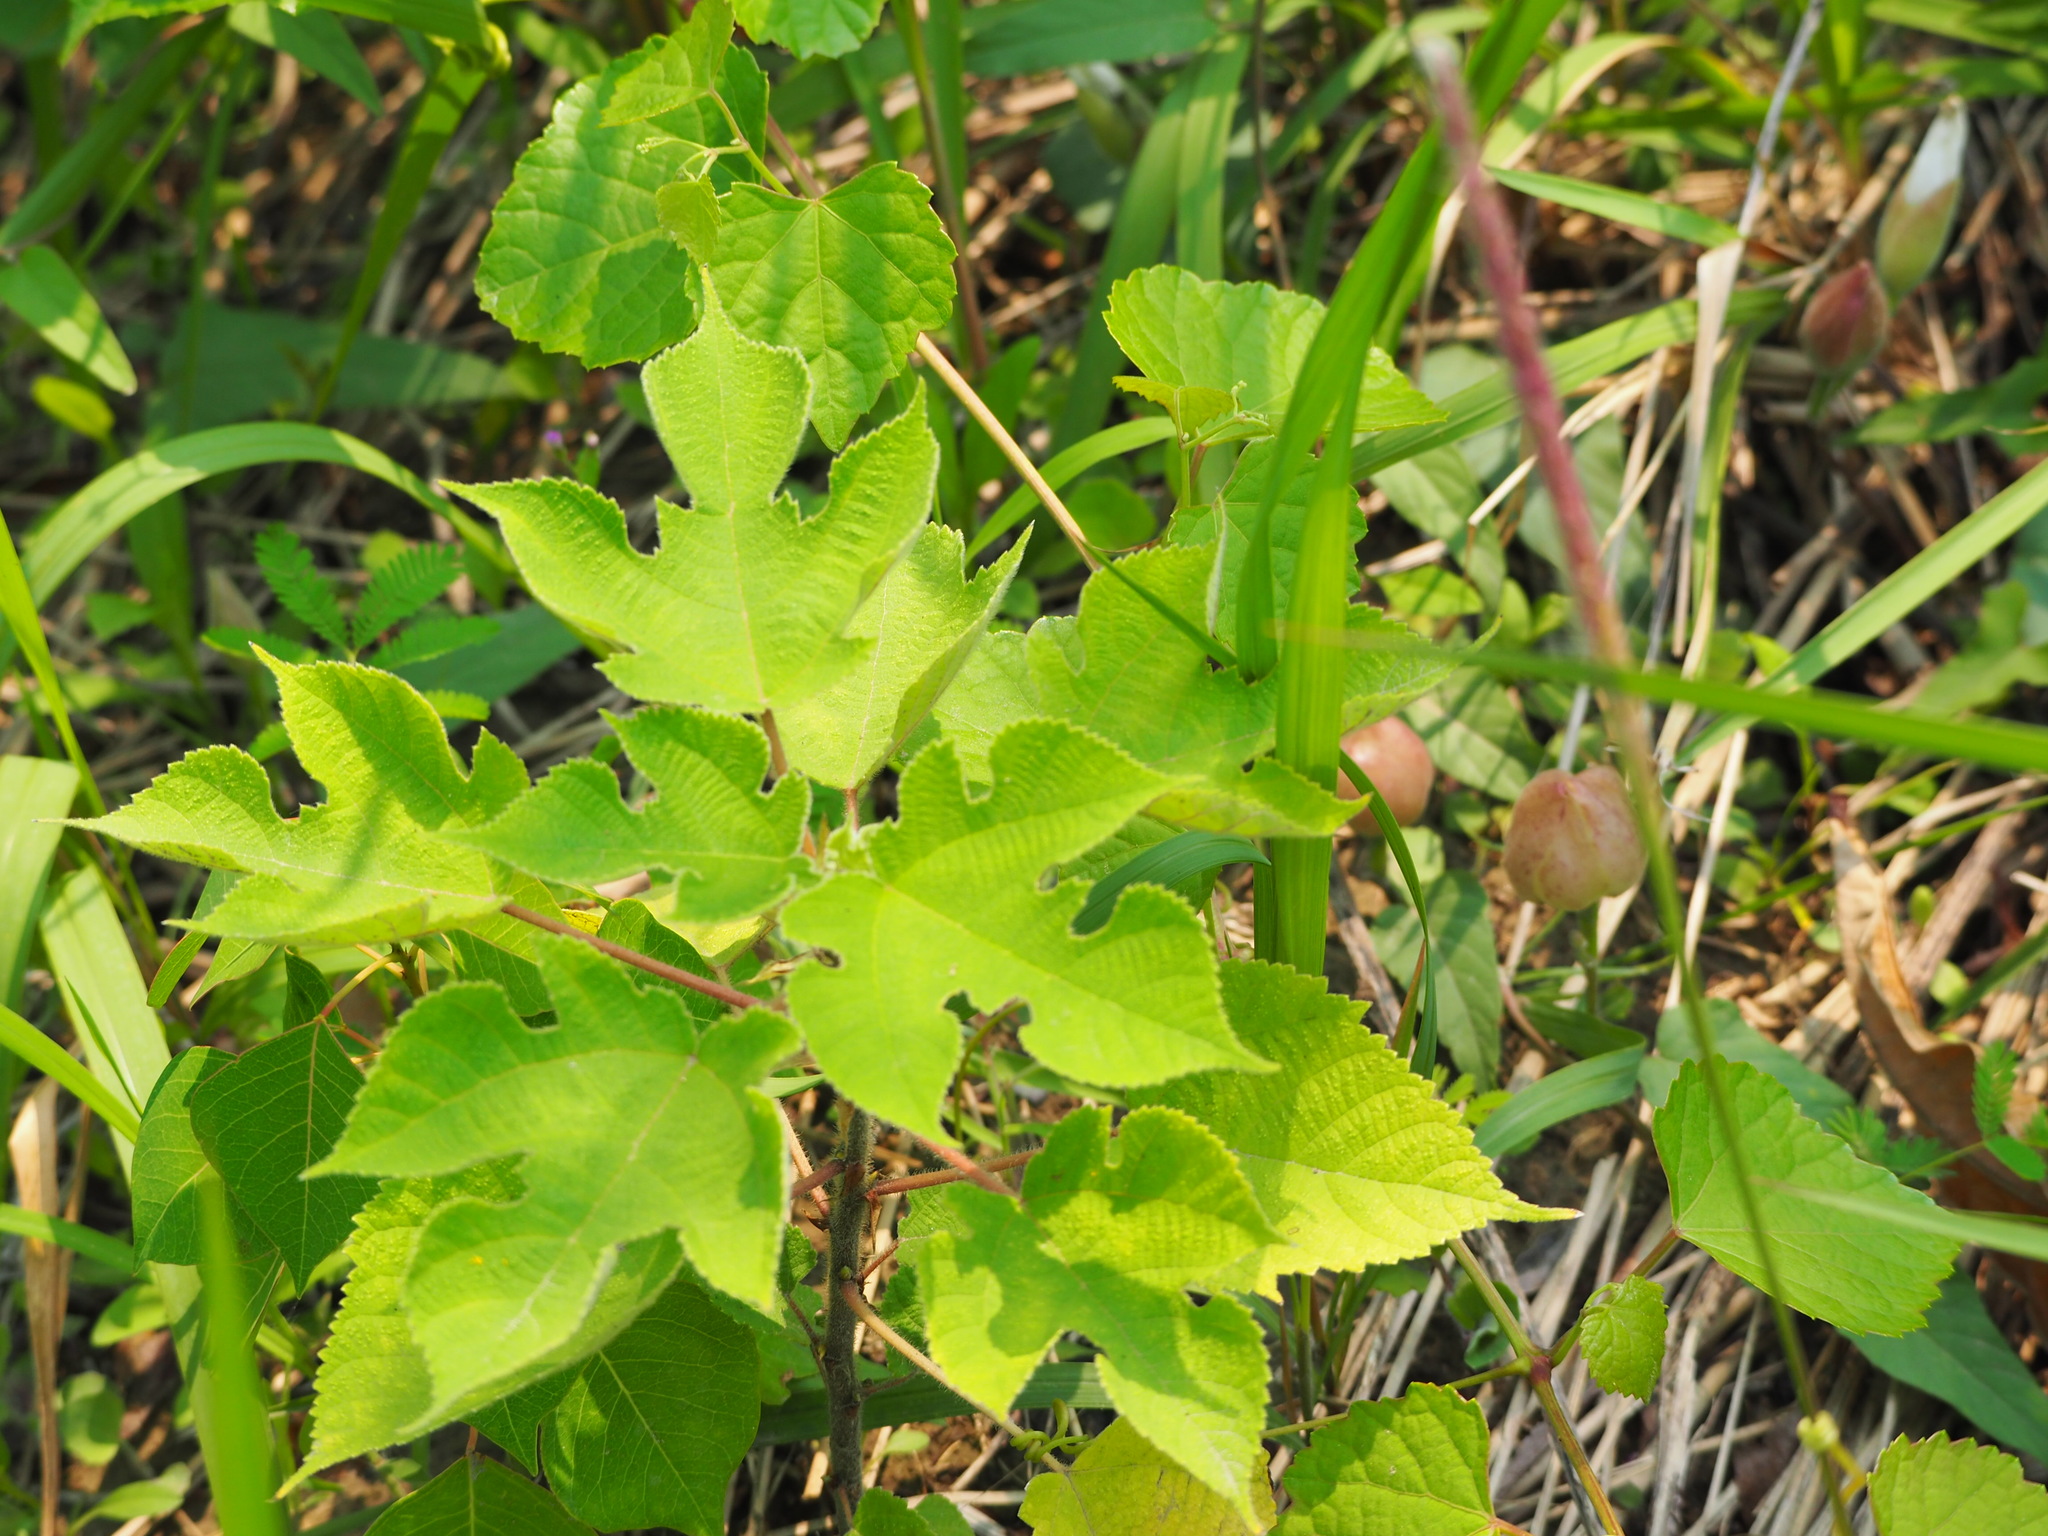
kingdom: Plantae
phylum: Tracheophyta
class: Magnoliopsida
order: Rosales
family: Moraceae
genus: Broussonetia
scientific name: Broussonetia papyrifera
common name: Paper mulberry
